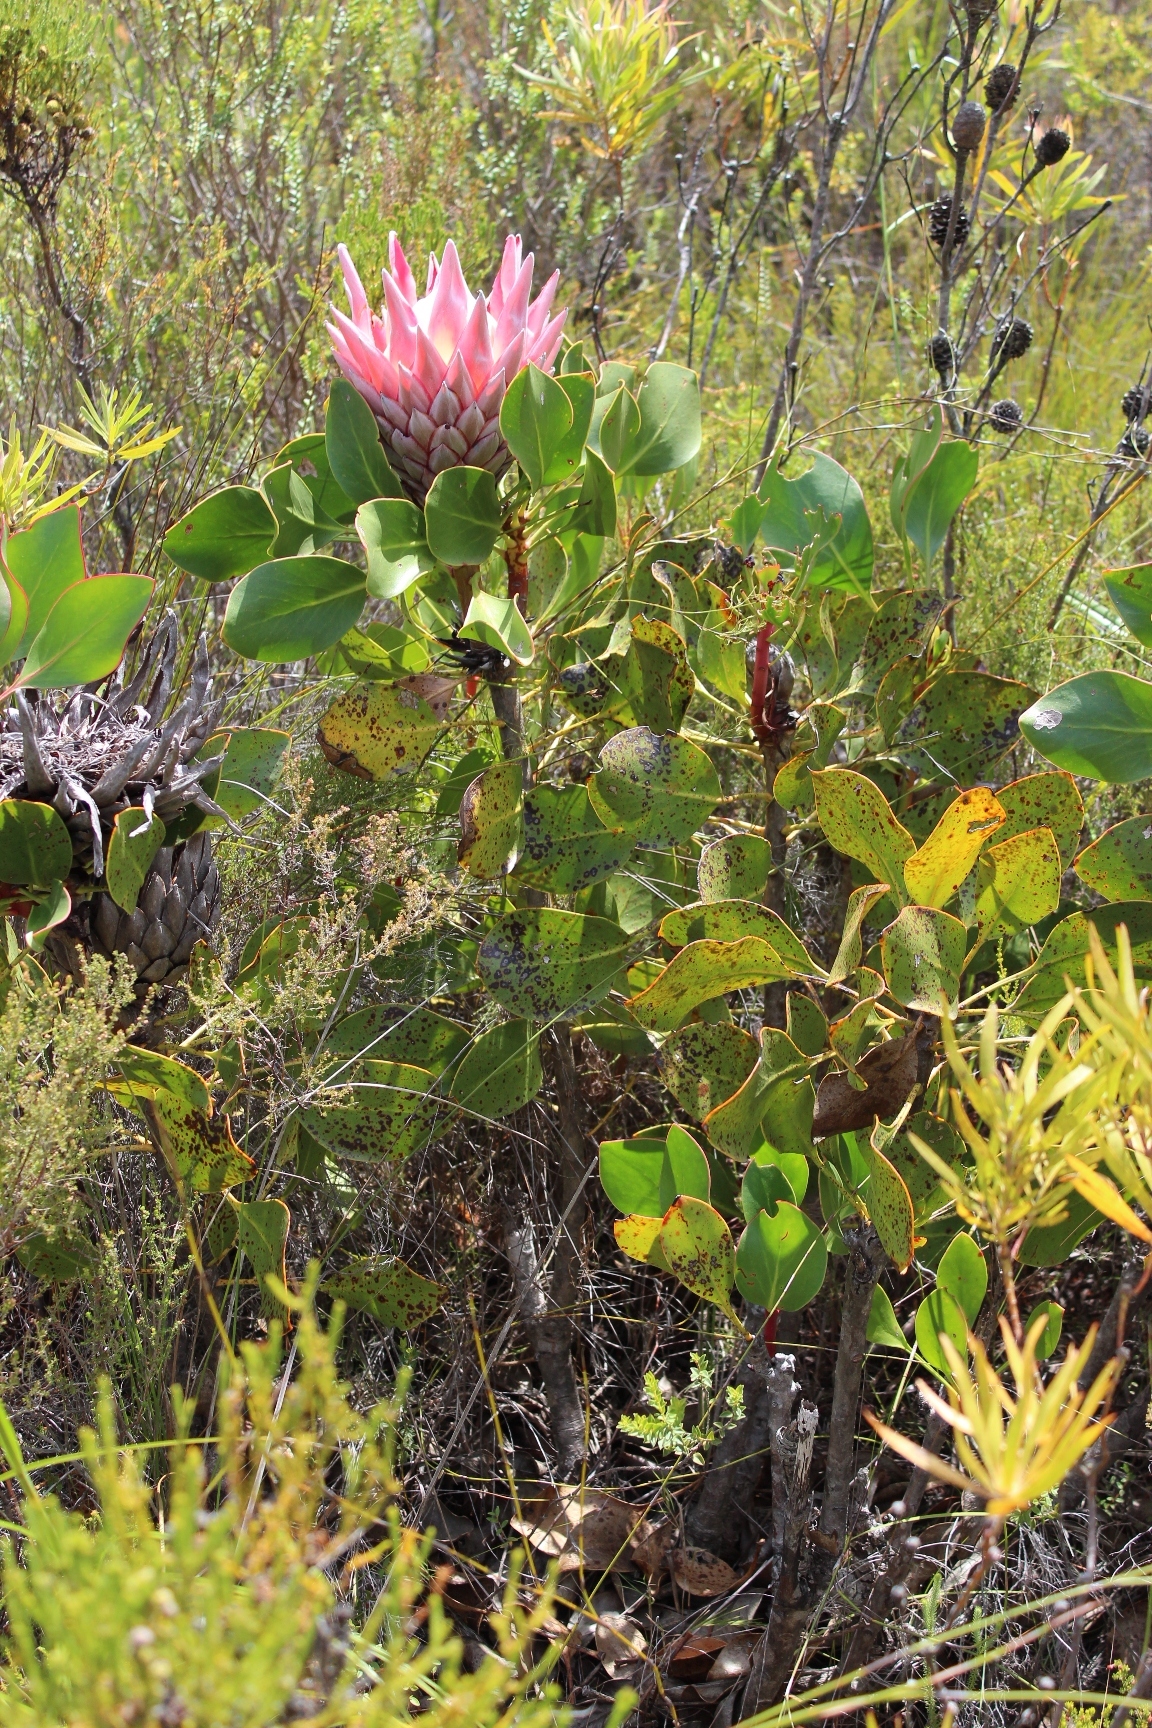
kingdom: Plantae
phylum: Tracheophyta
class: Magnoliopsida
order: Proteales
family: Proteaceae
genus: Protea
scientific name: Protea cynaroides
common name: King protea
